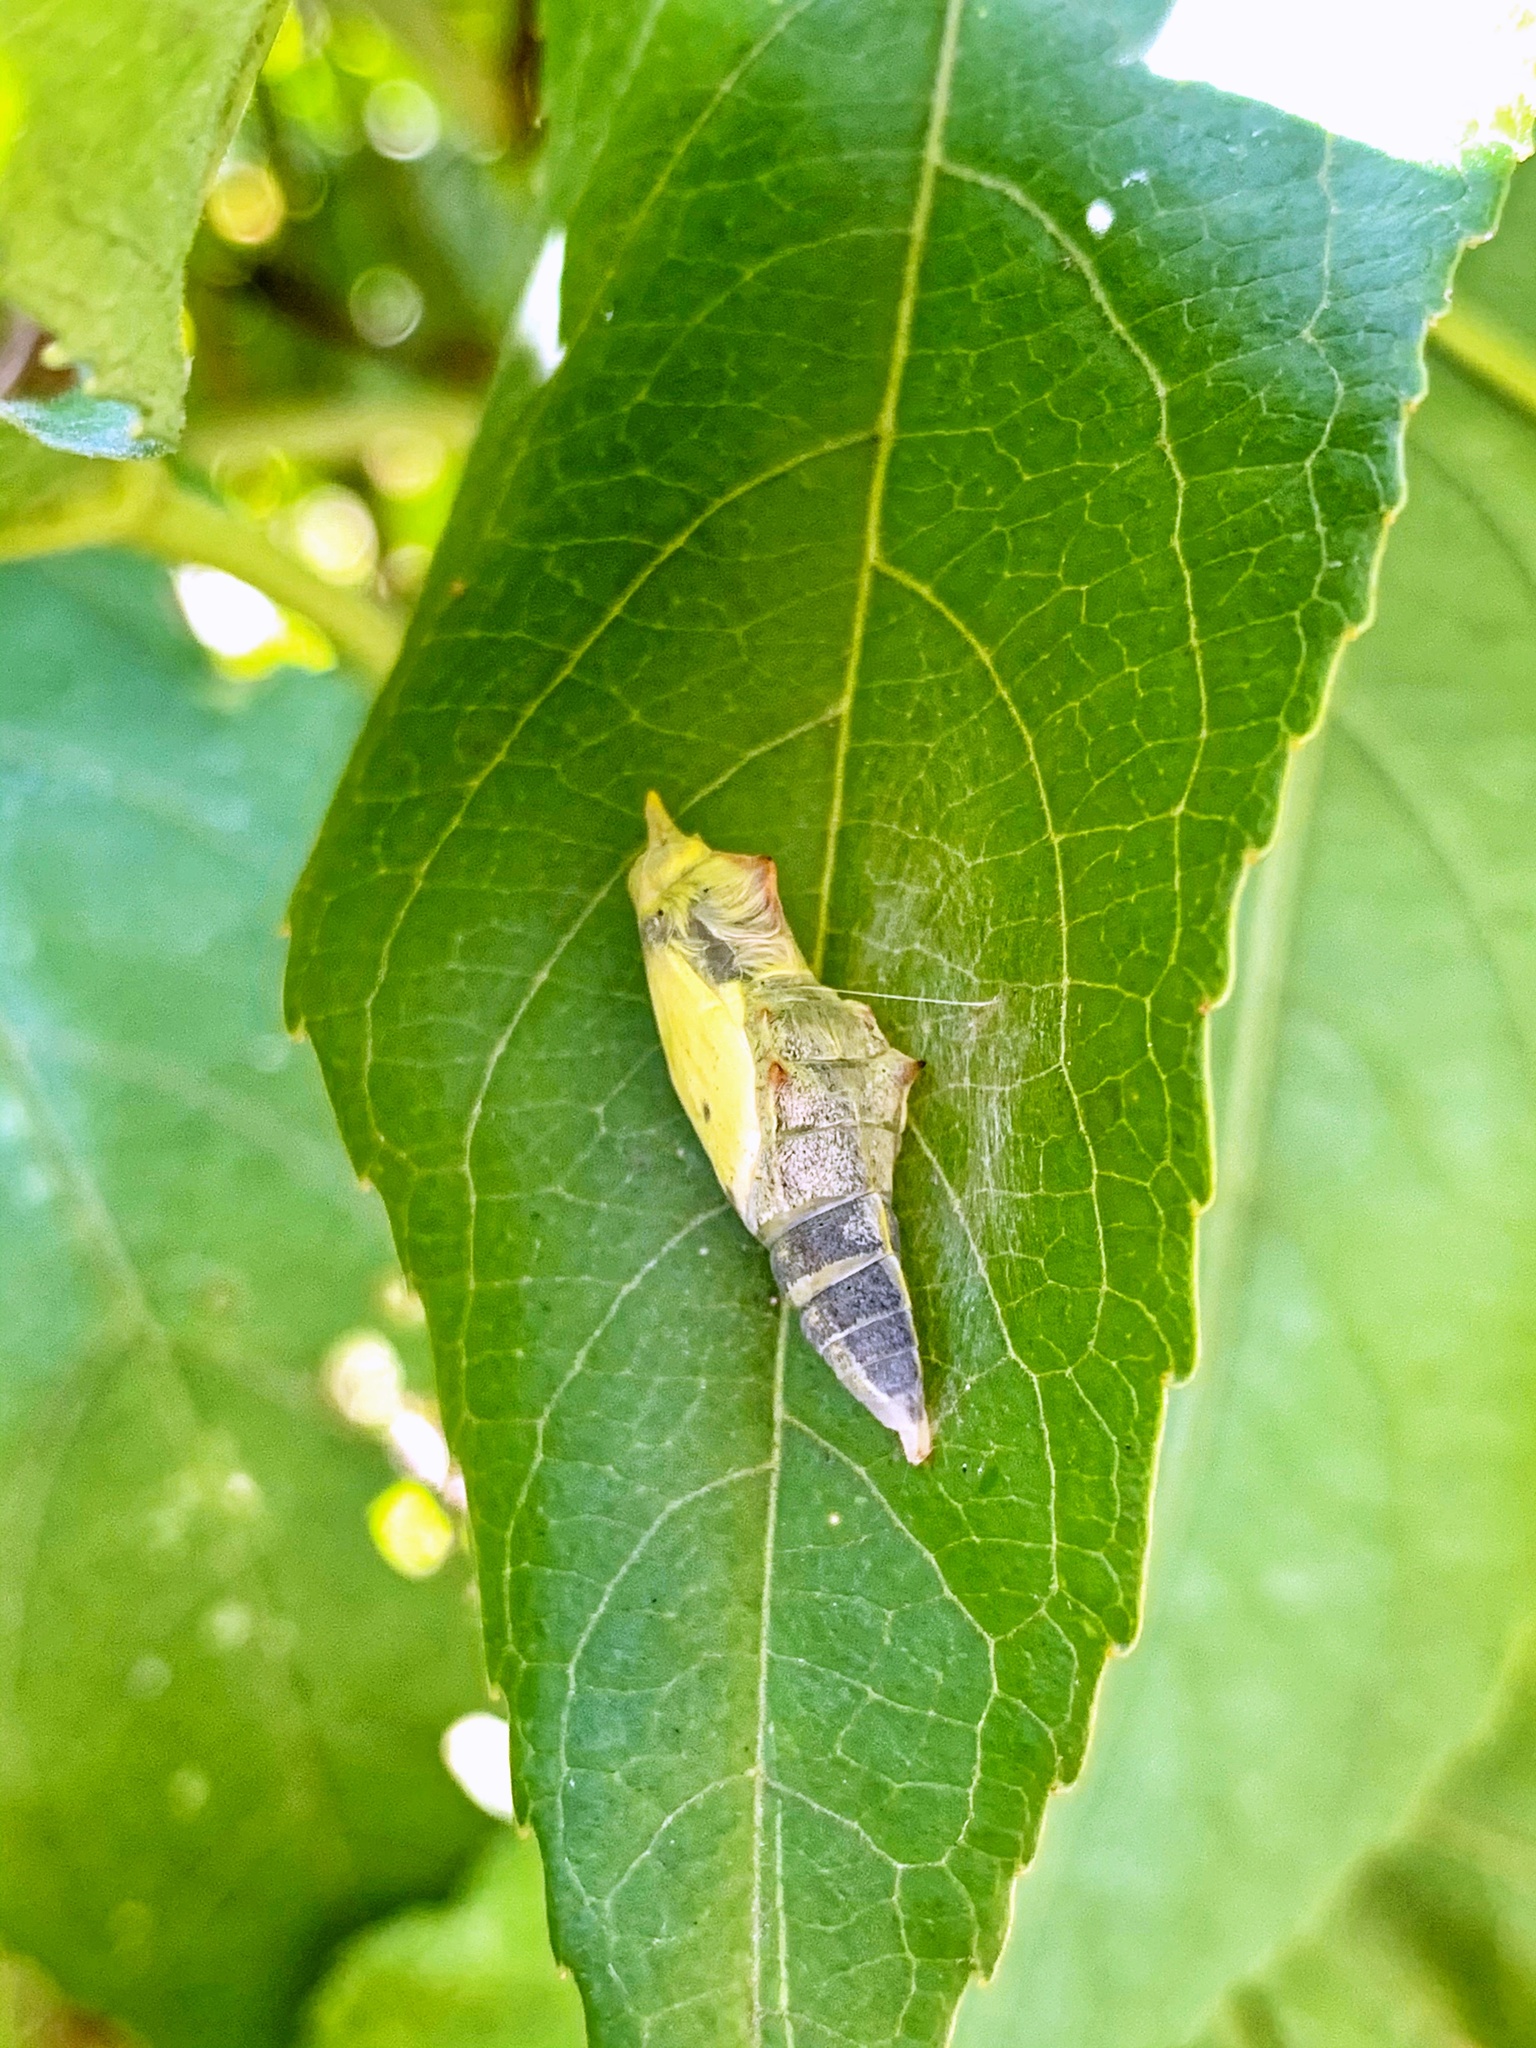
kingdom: Animalia
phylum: Arthropoda
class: Insecta
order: Lepidoptera
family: Pieridae
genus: Pieris
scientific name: Pieris rapae
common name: Small white
